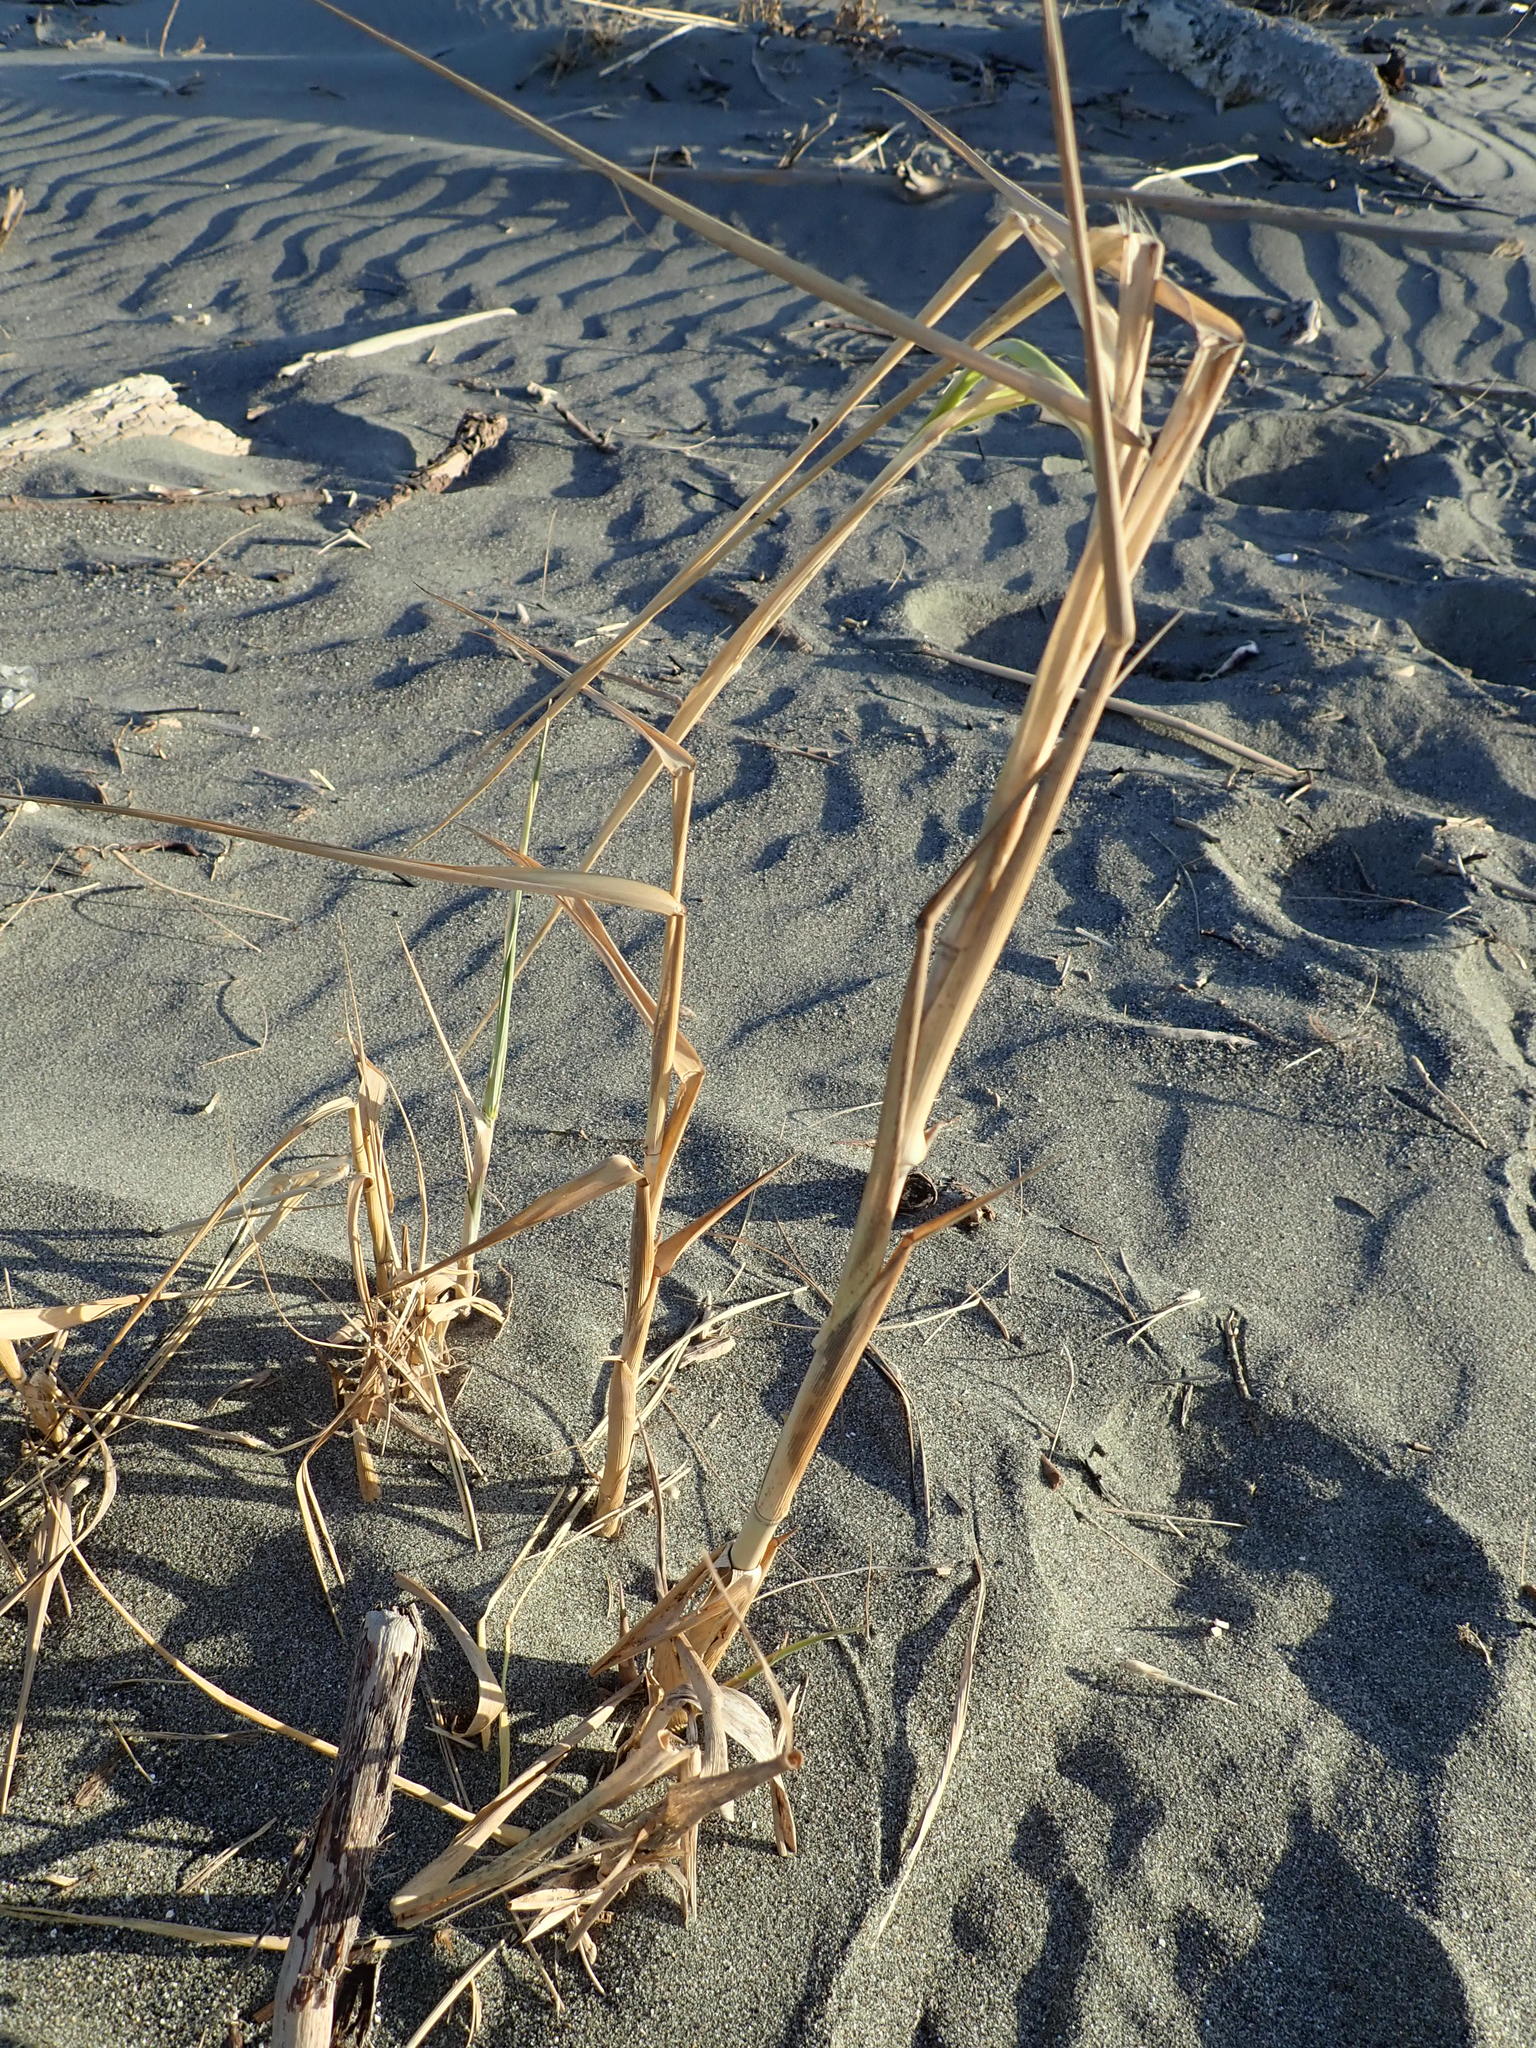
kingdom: Plantae
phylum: Tracheophyta
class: Liliopsida
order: Poales
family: Poaceae
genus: Phragmites
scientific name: Phragmites karka
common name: Tropical reed
